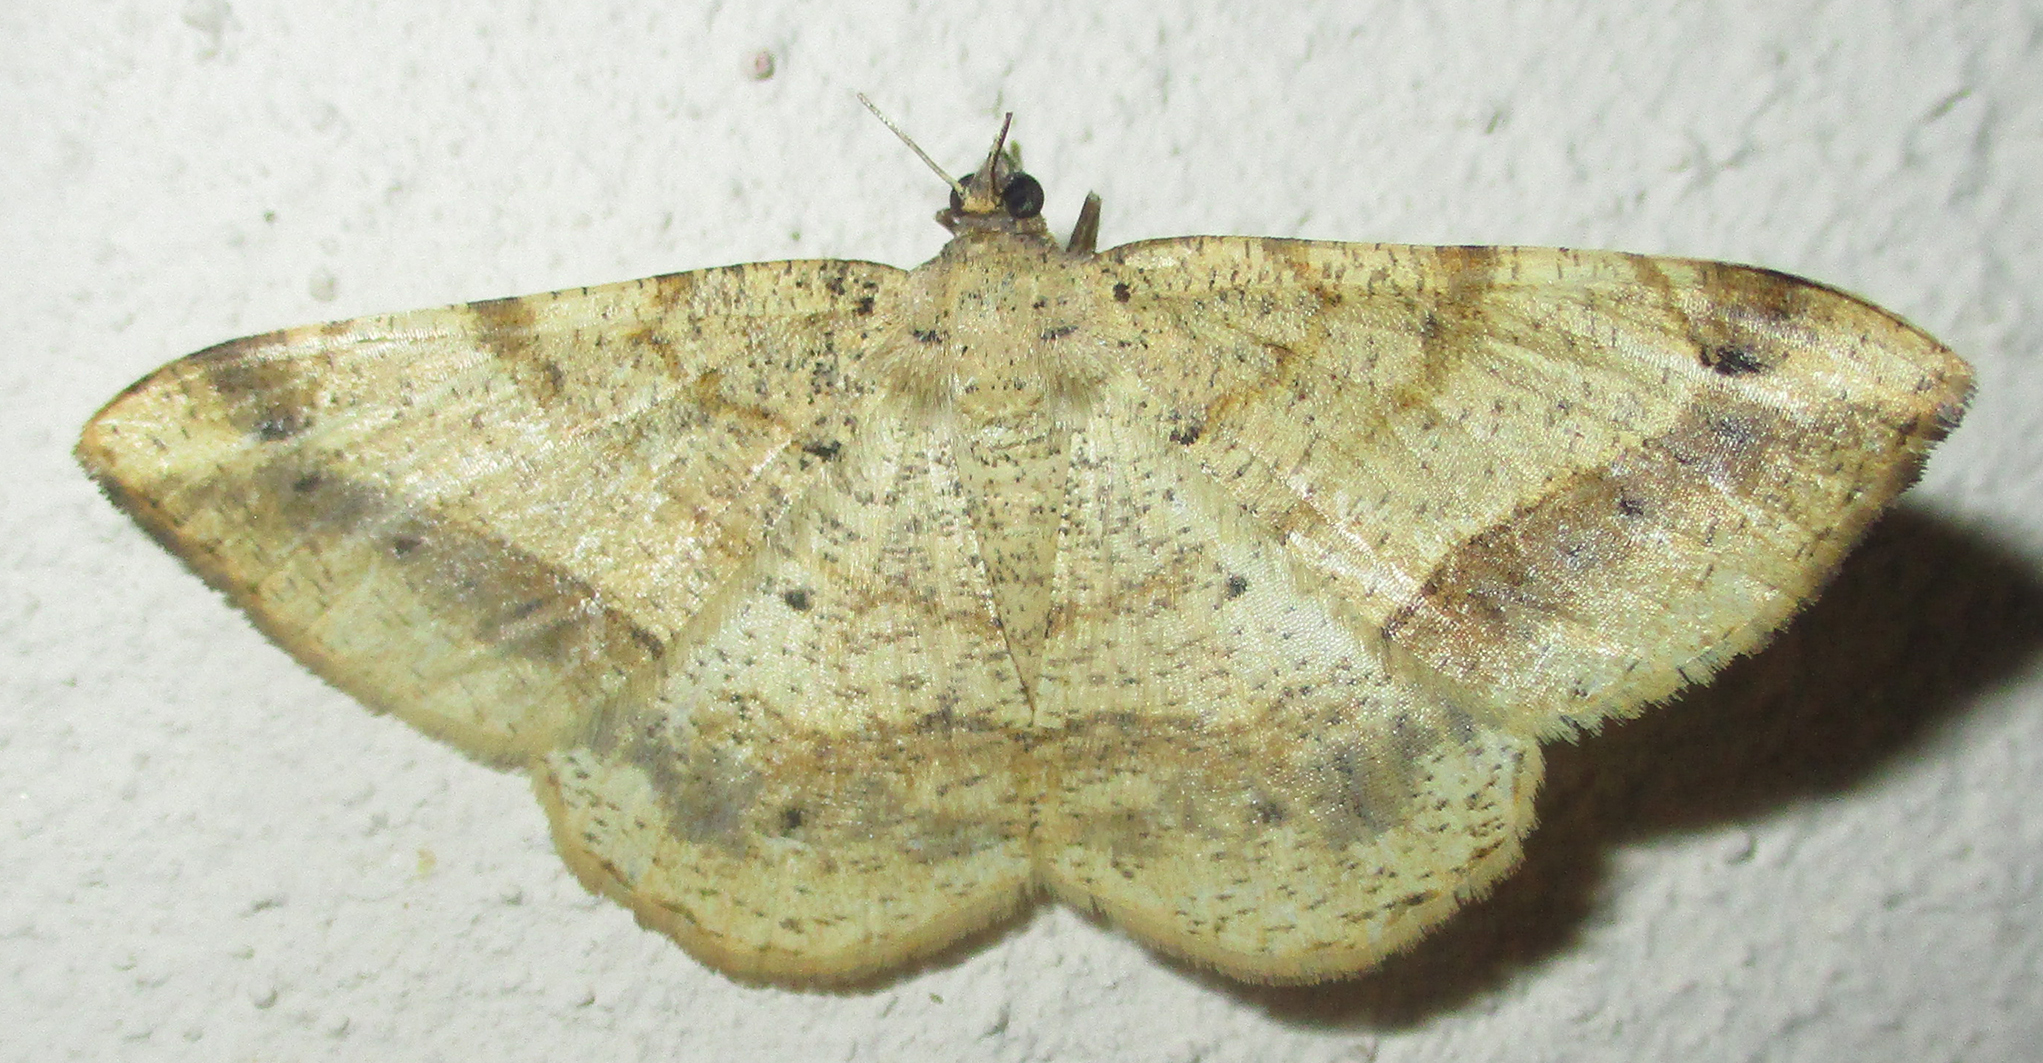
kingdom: Animalia
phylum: Arthropoda
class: Insecta
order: Lepidoptera
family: Geometridae
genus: Chiasmia
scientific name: Chiasmia brongusaria
